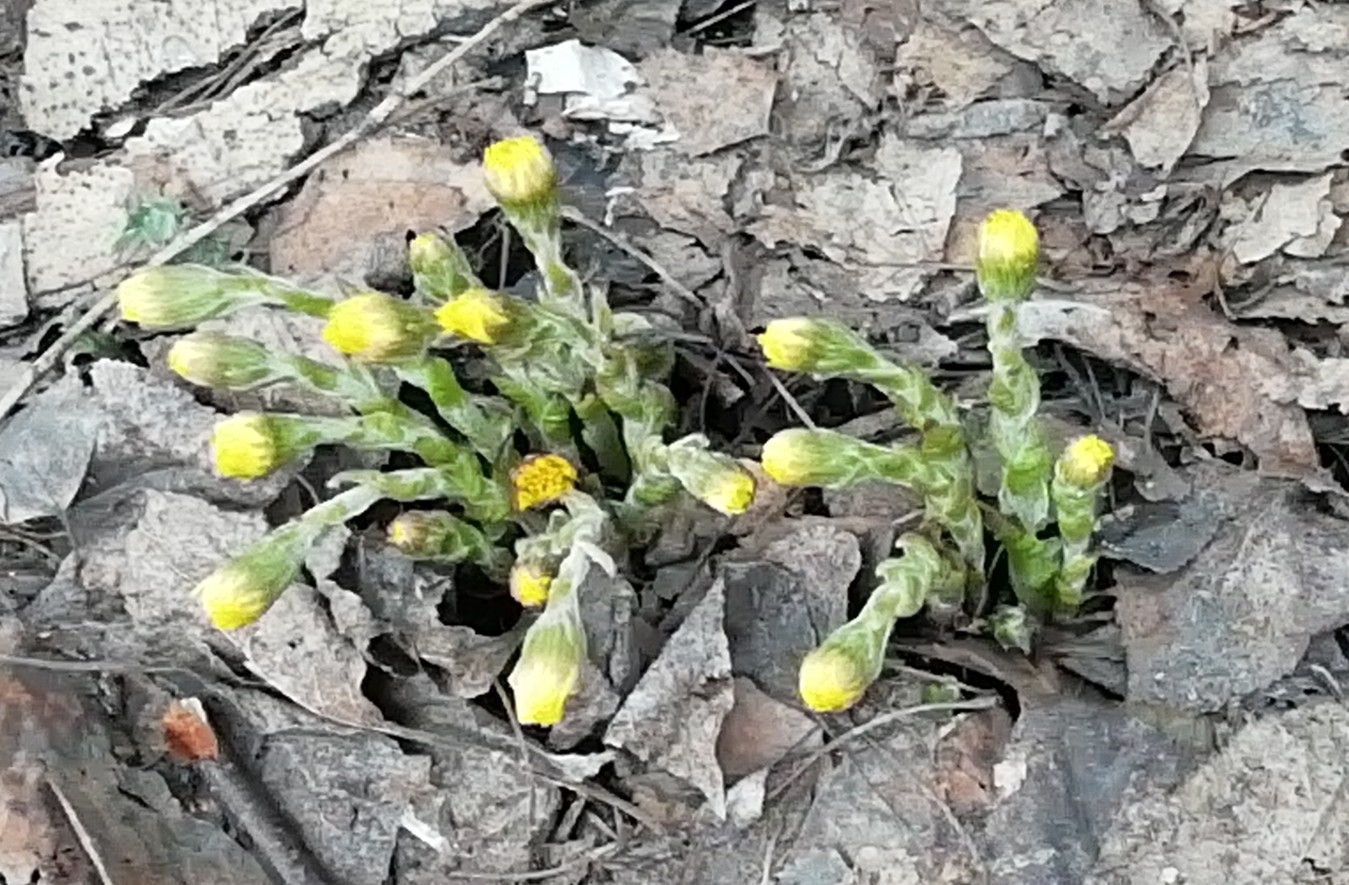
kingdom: Plantae
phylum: Tracheophyta
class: Magnoliopsida
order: Asterales
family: Asteraceae
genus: Tussilago
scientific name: Tussilago farfara
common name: Coltsfoot
